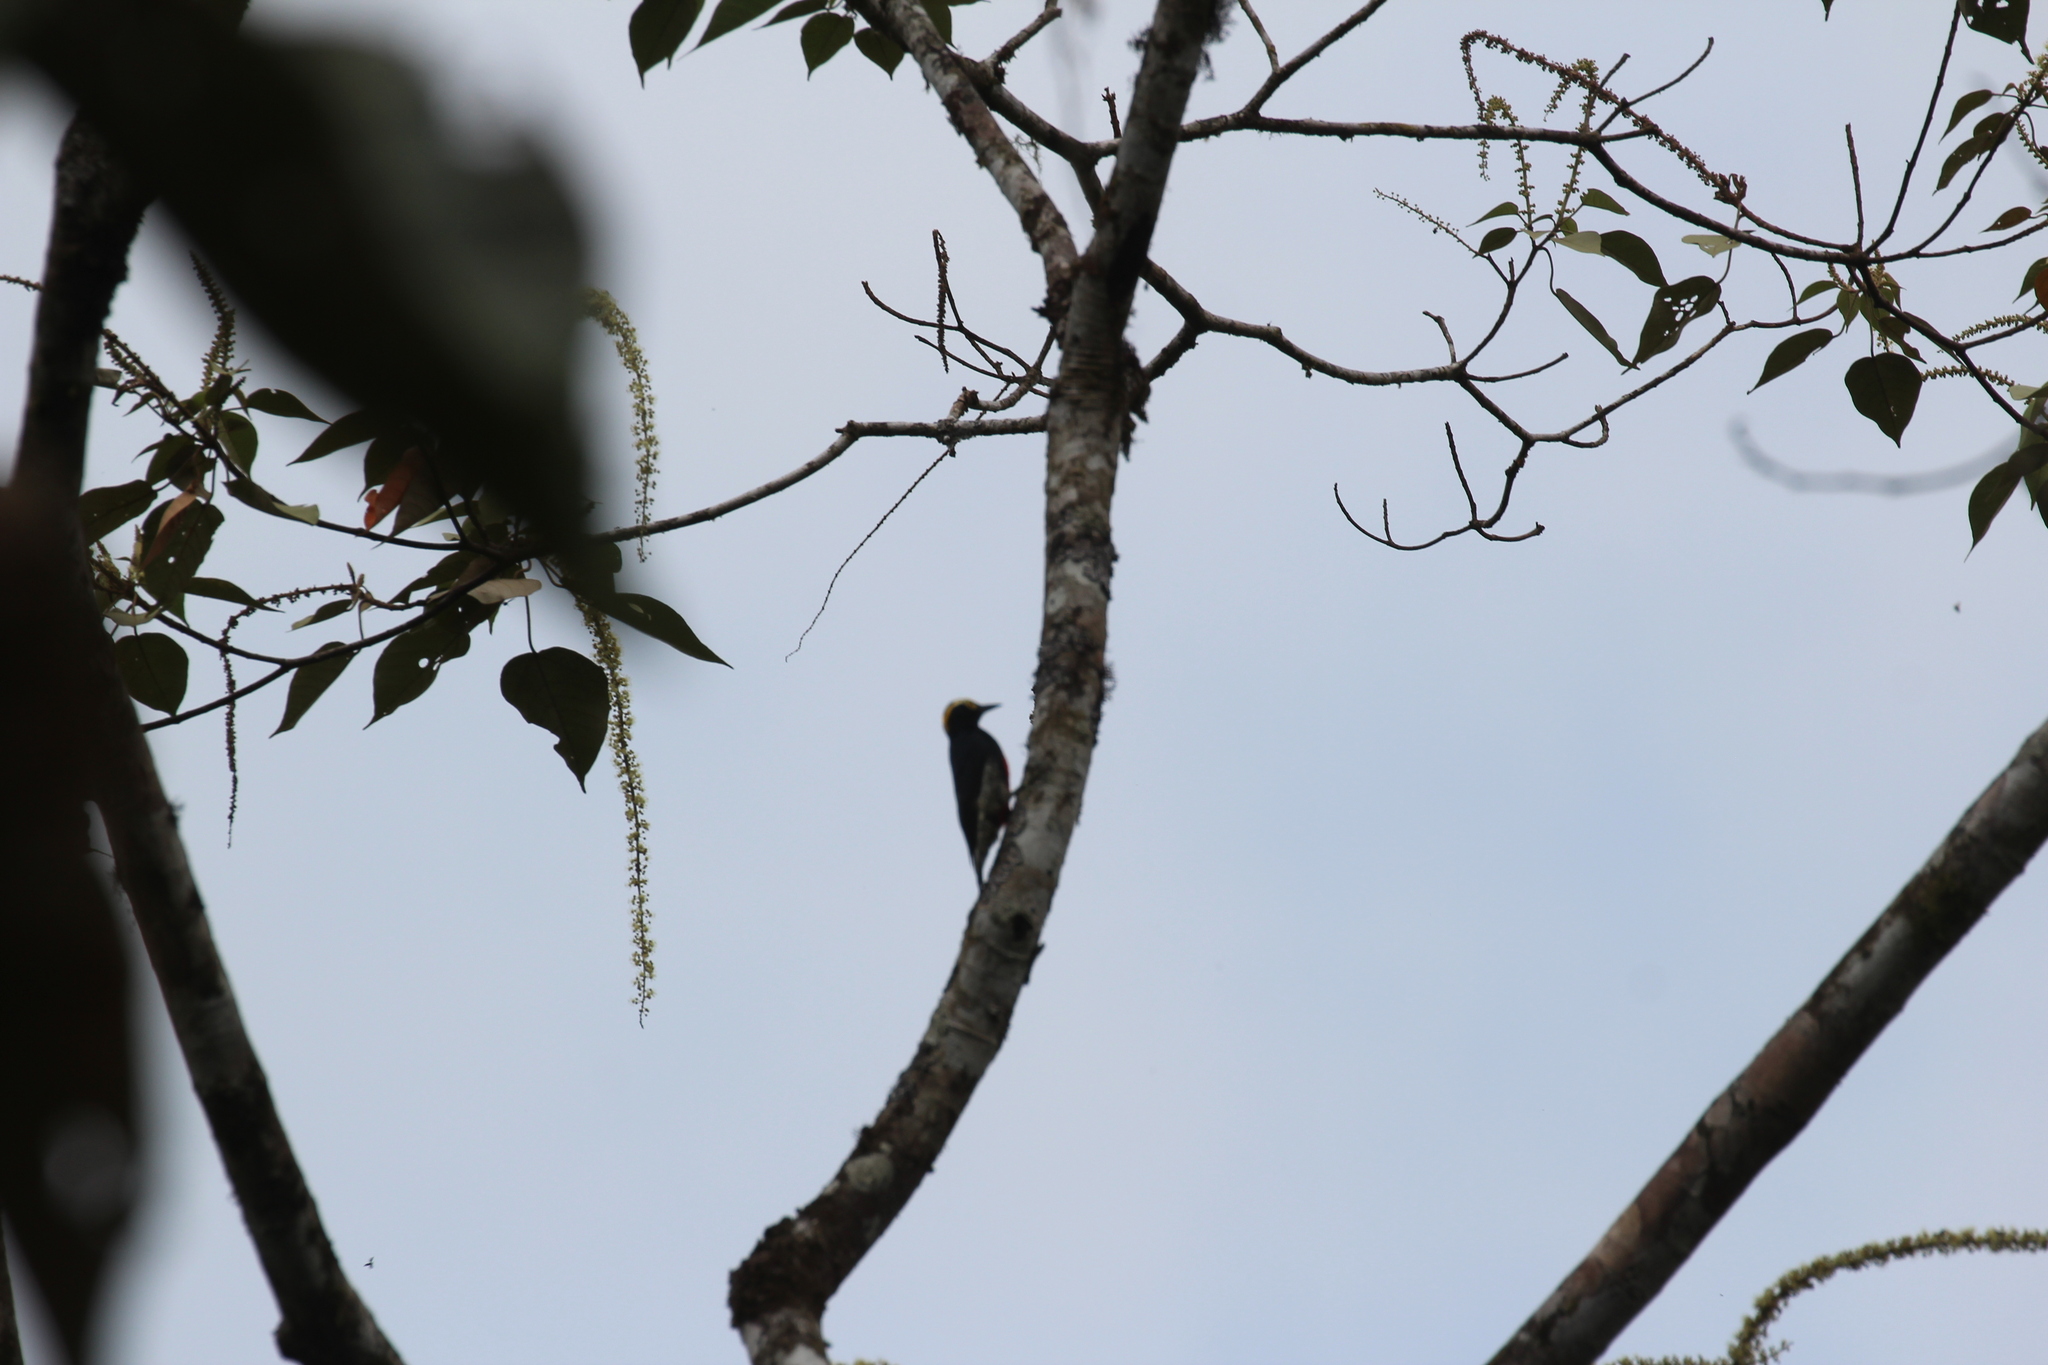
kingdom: Animalia
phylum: Chordata
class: Aves
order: Piciformes
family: Picidae
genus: Melanerpes
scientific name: Melanerpes cruentatus
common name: Yellow-tufted woodpecker
